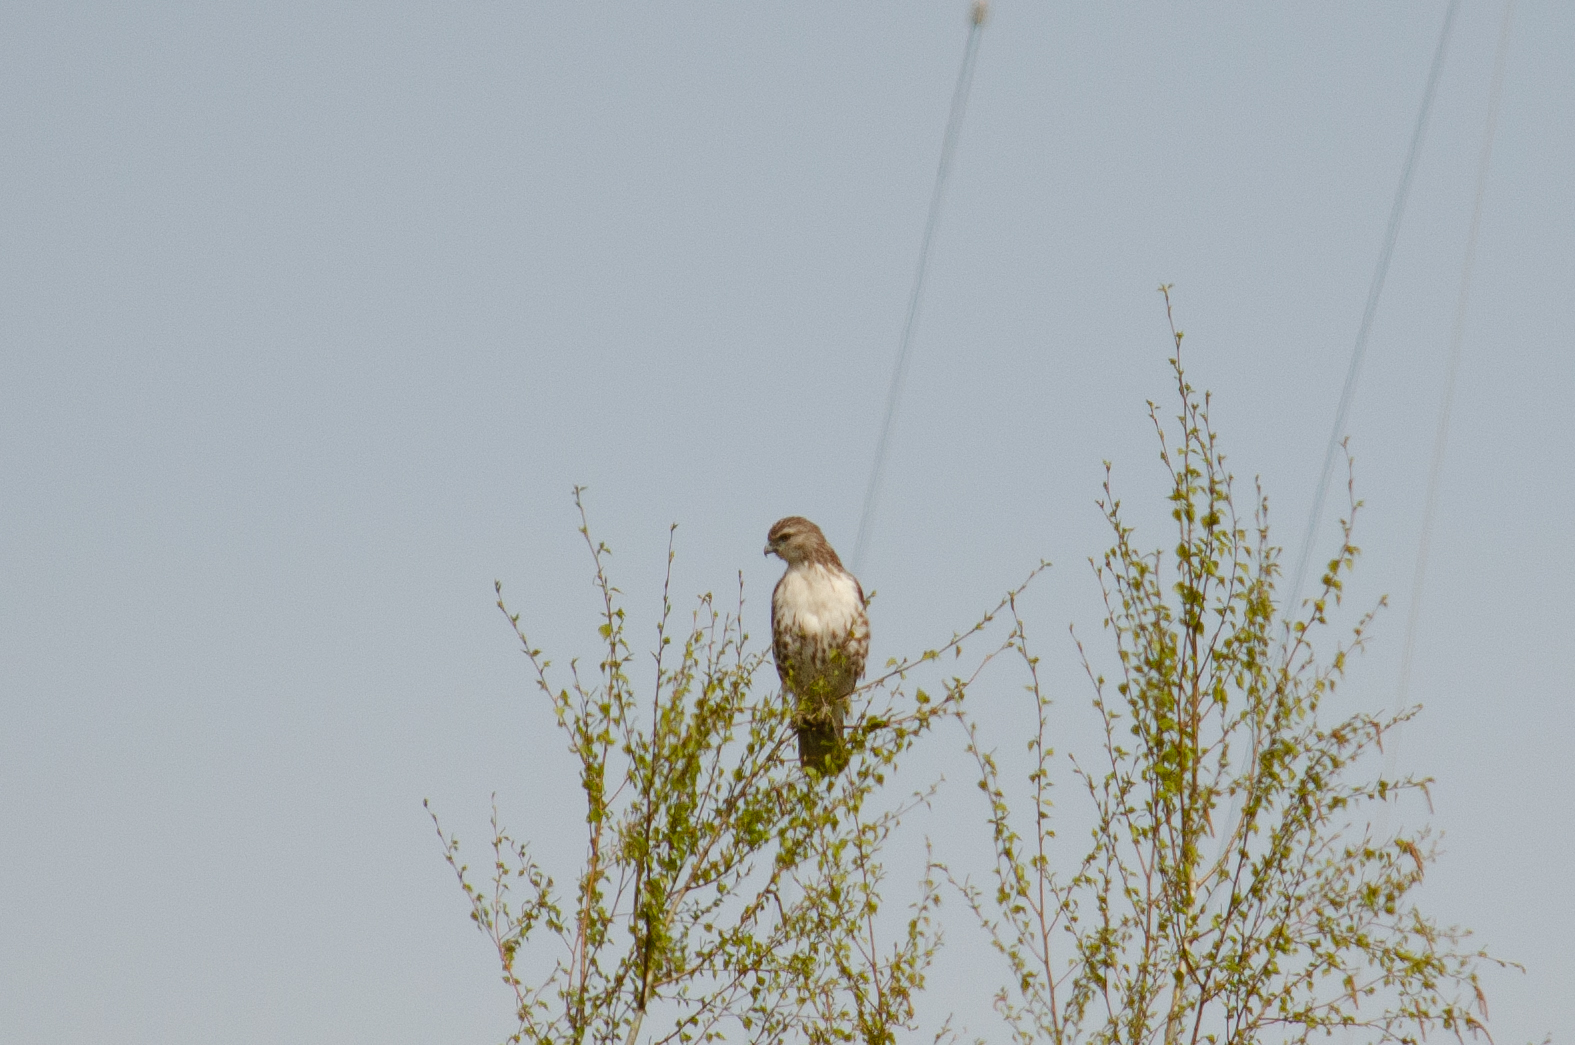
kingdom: Animalia
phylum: Chordata
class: Aves
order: Accipitriformes
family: Accipitridae
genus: Buteo
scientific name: Buteo jamaicensis
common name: Red-tailed hawk
